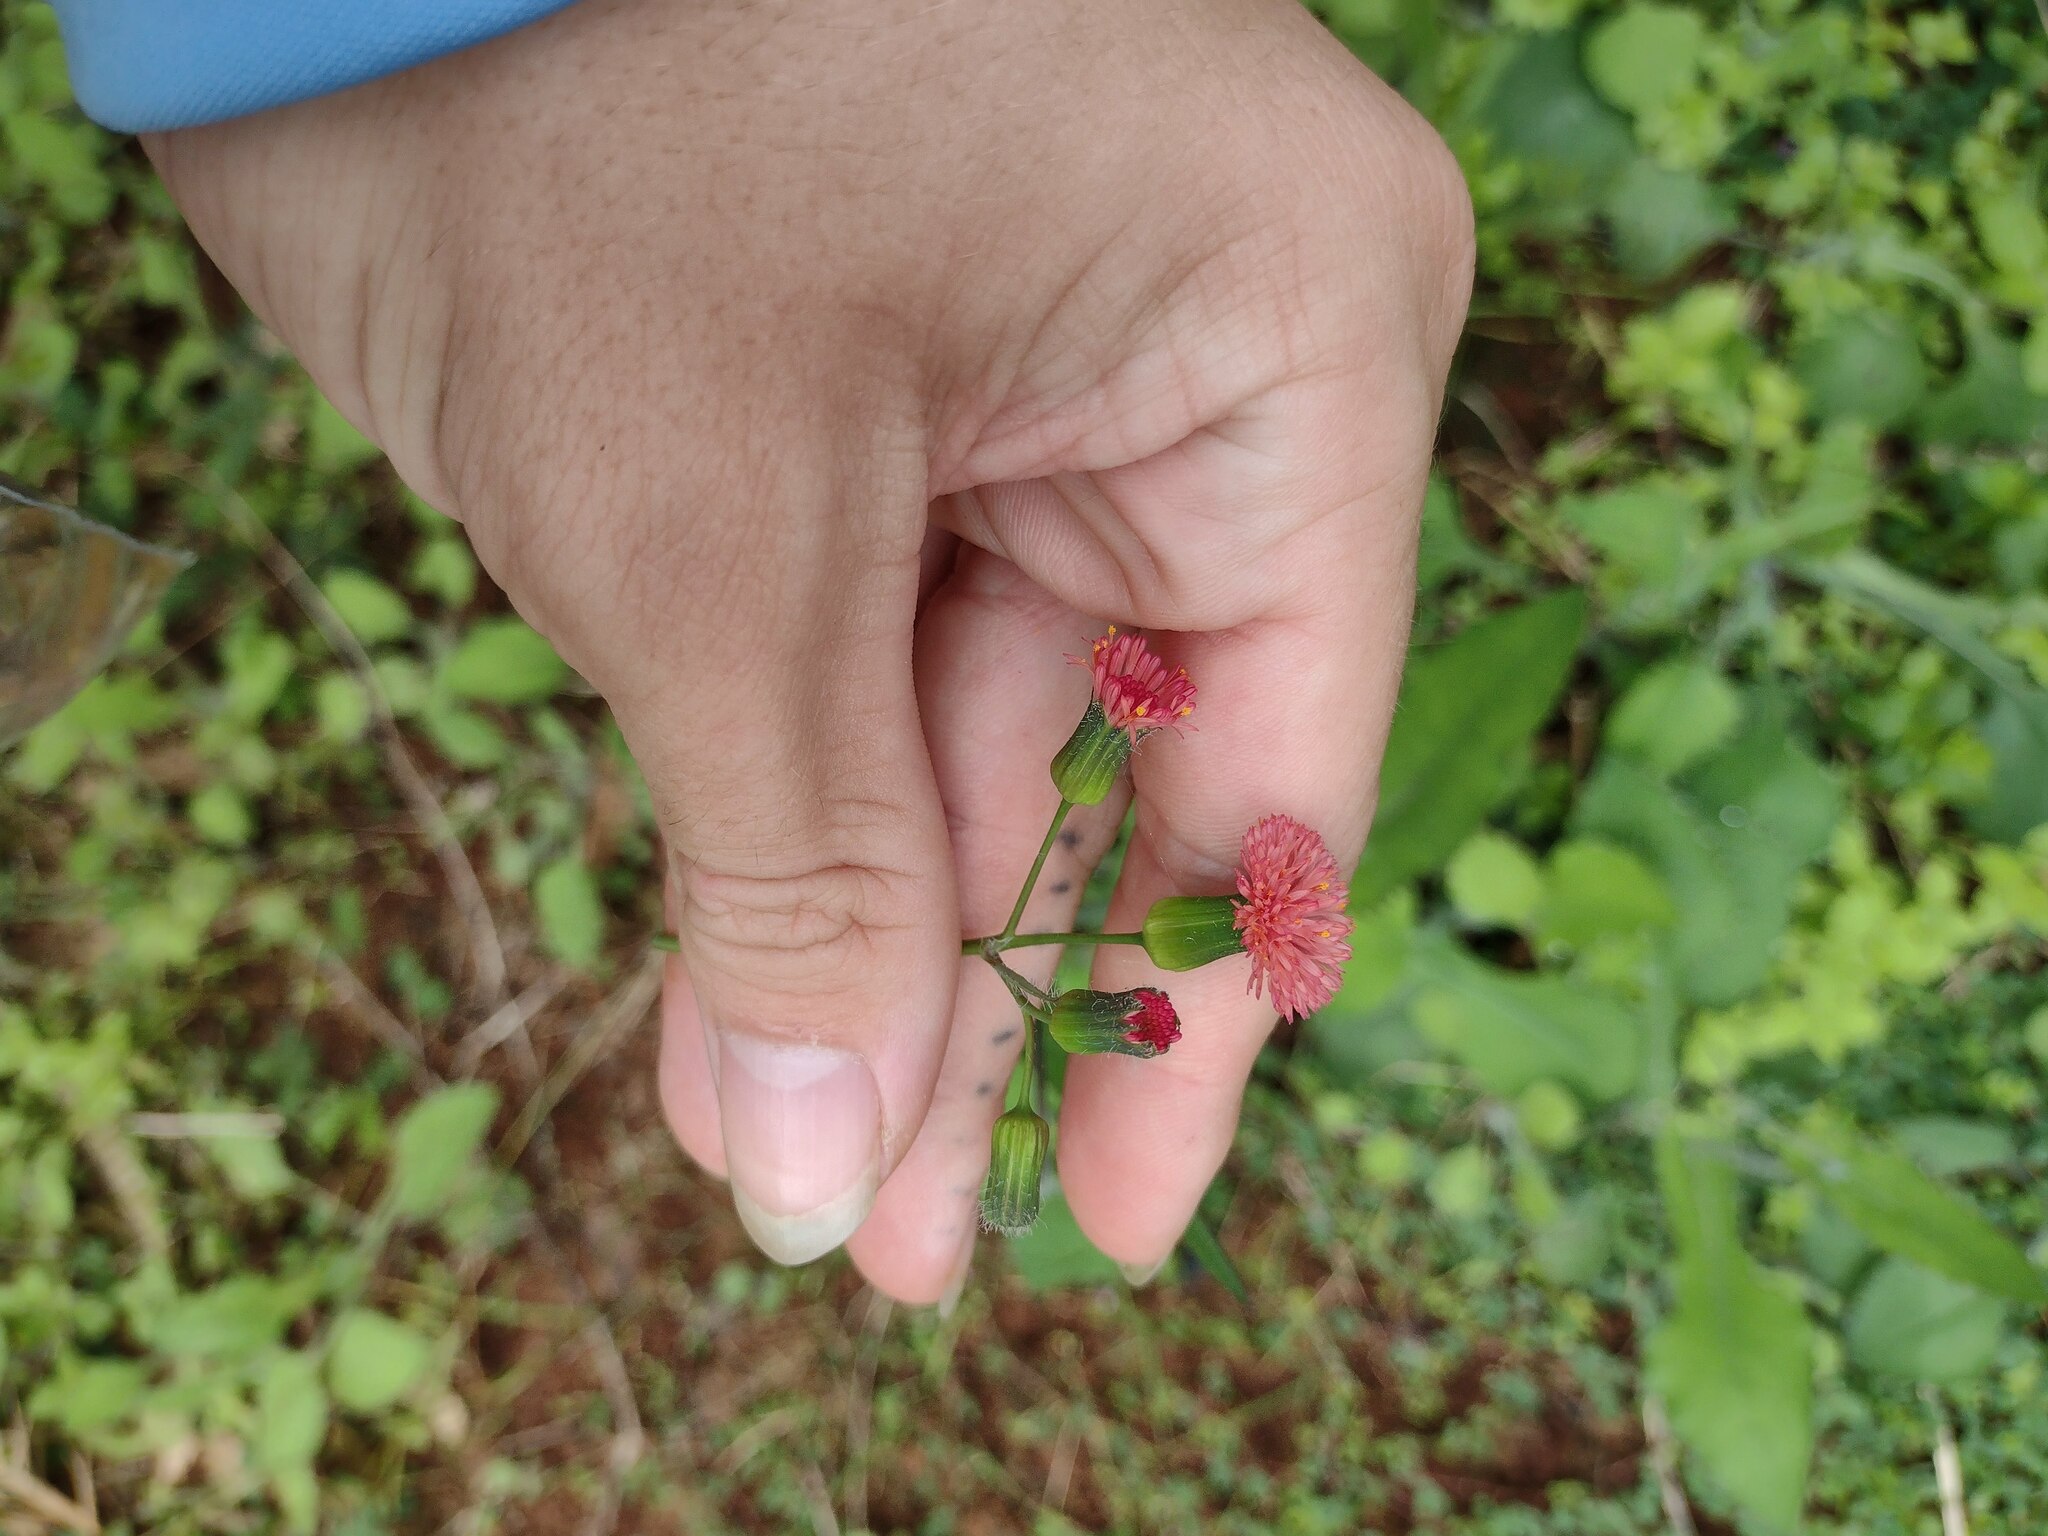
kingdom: Plantae
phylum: Tracheophyta
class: Magnoliopsida
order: Asterales
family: Asteraceae
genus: Emilia
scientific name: Emilia fosbergii
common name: Florida tasselflower
